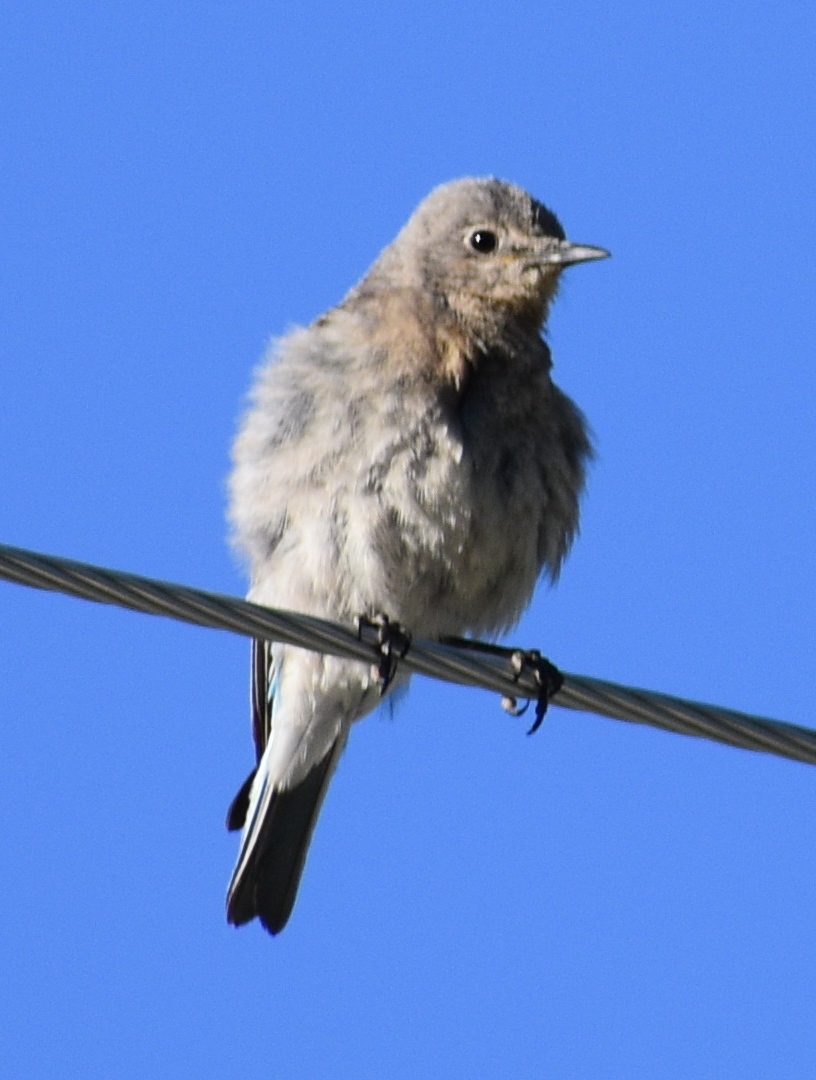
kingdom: Animalia
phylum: Chordata
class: Aves
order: Passeriformes
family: Turdidae
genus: Sialia
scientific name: Sialia currucoides
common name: Mountain bluebird
